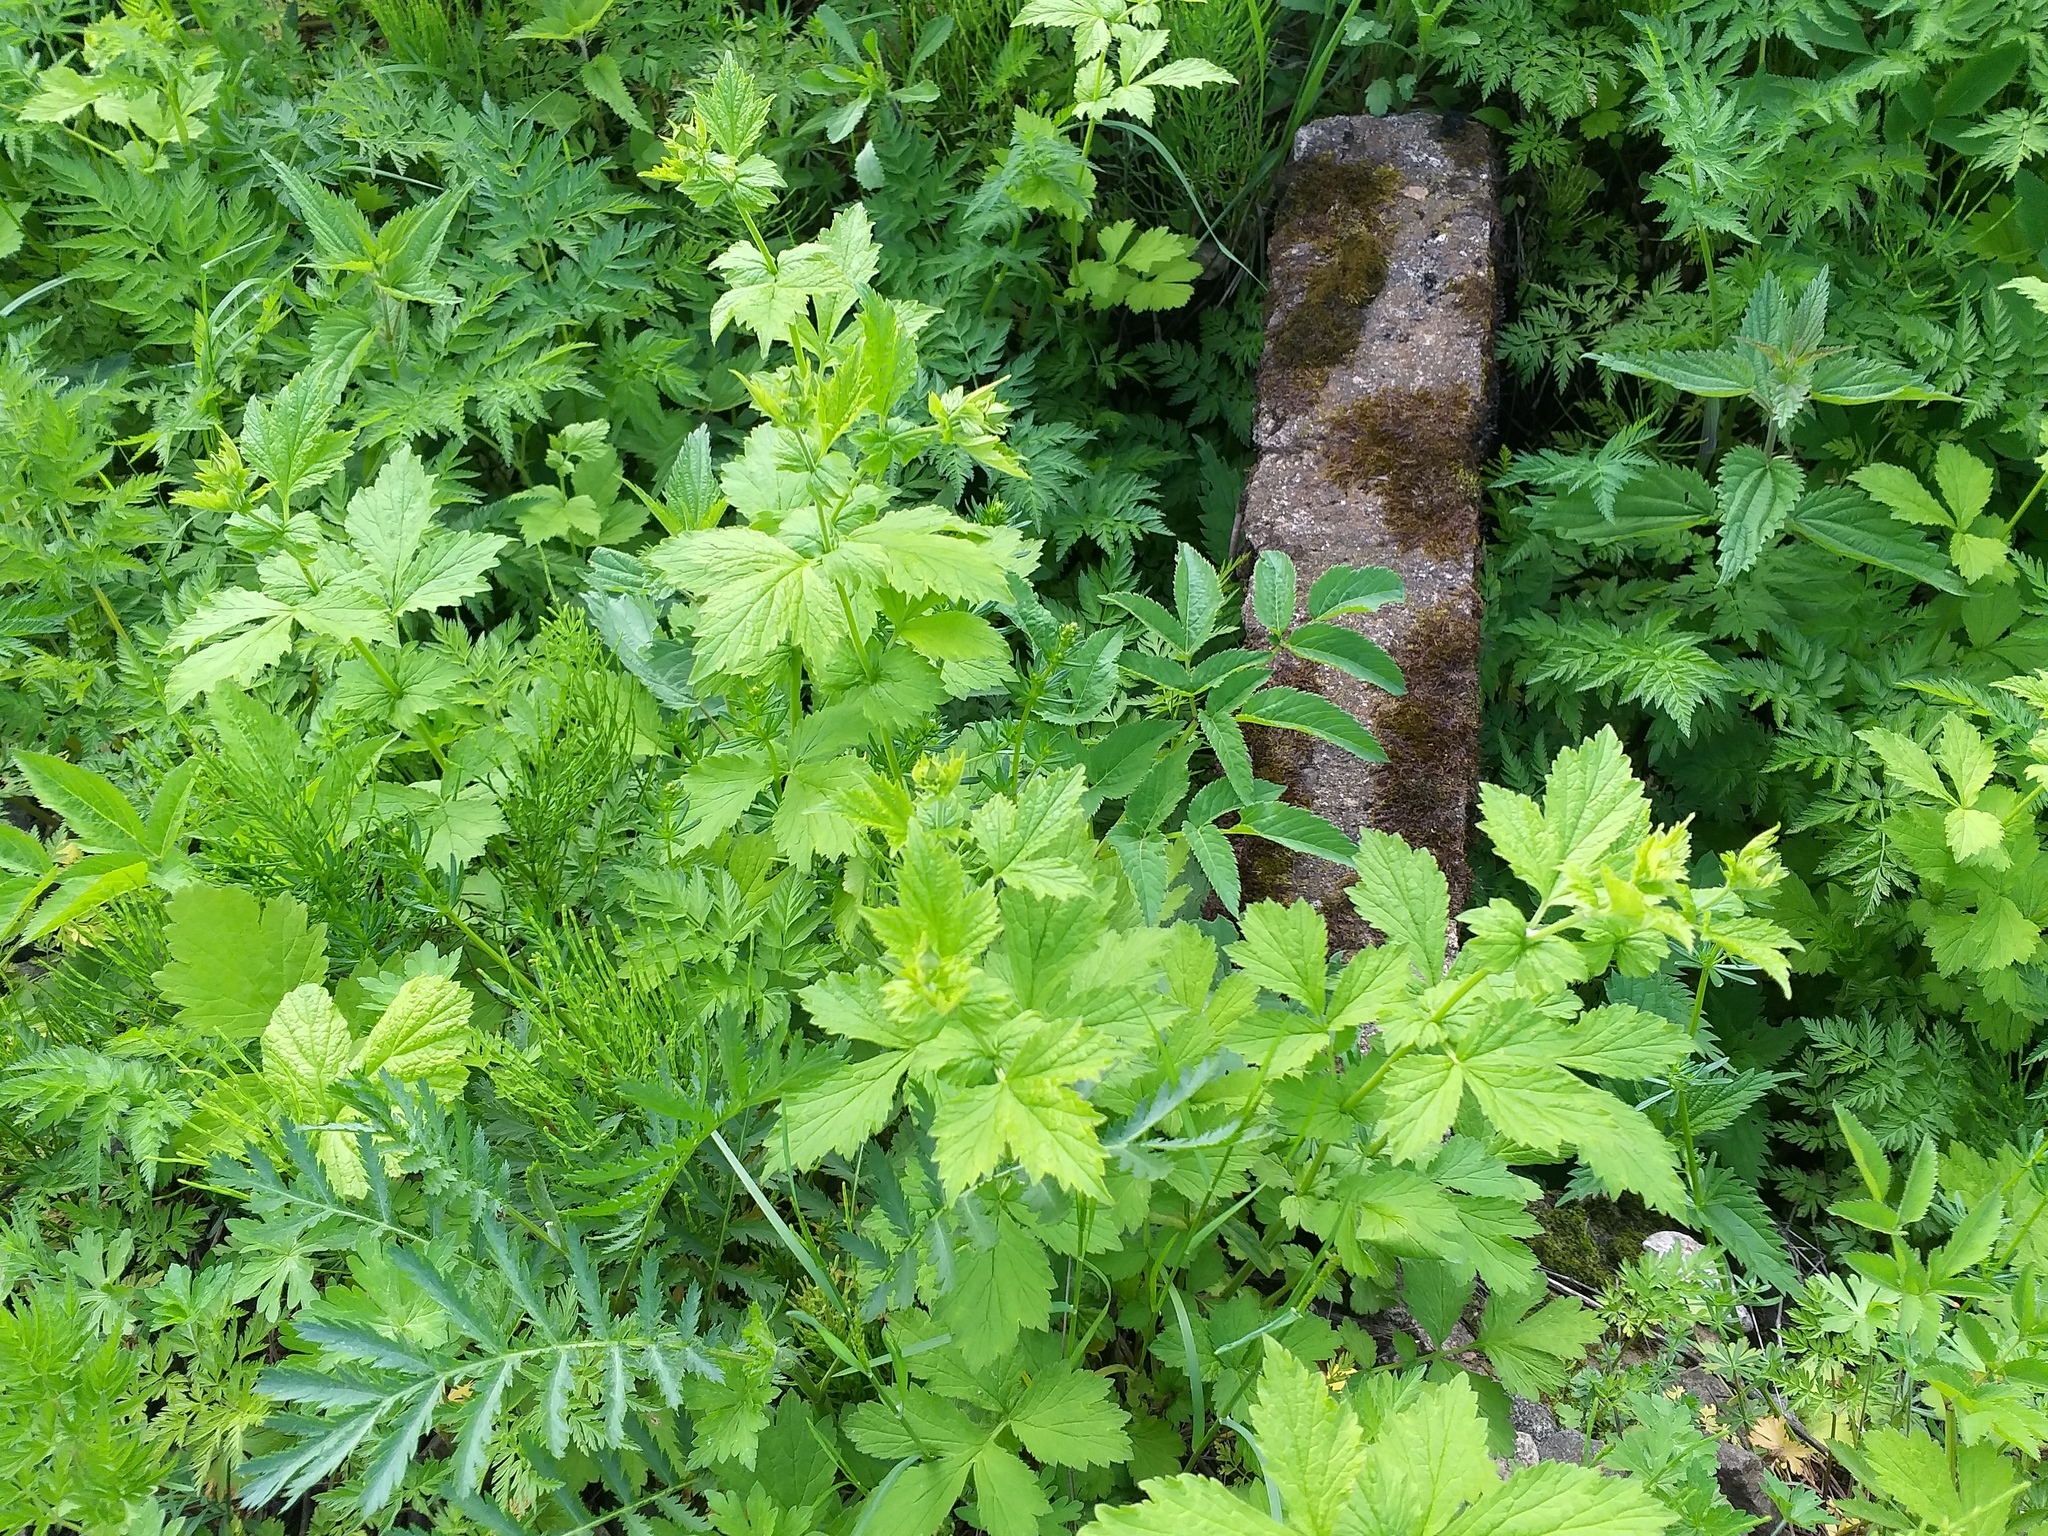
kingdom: Plantae
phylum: Tracheophyta
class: Magnoliopsida
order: Rosales
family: Rosaceae
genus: Geum
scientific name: Geum urbanum
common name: Wood avens
